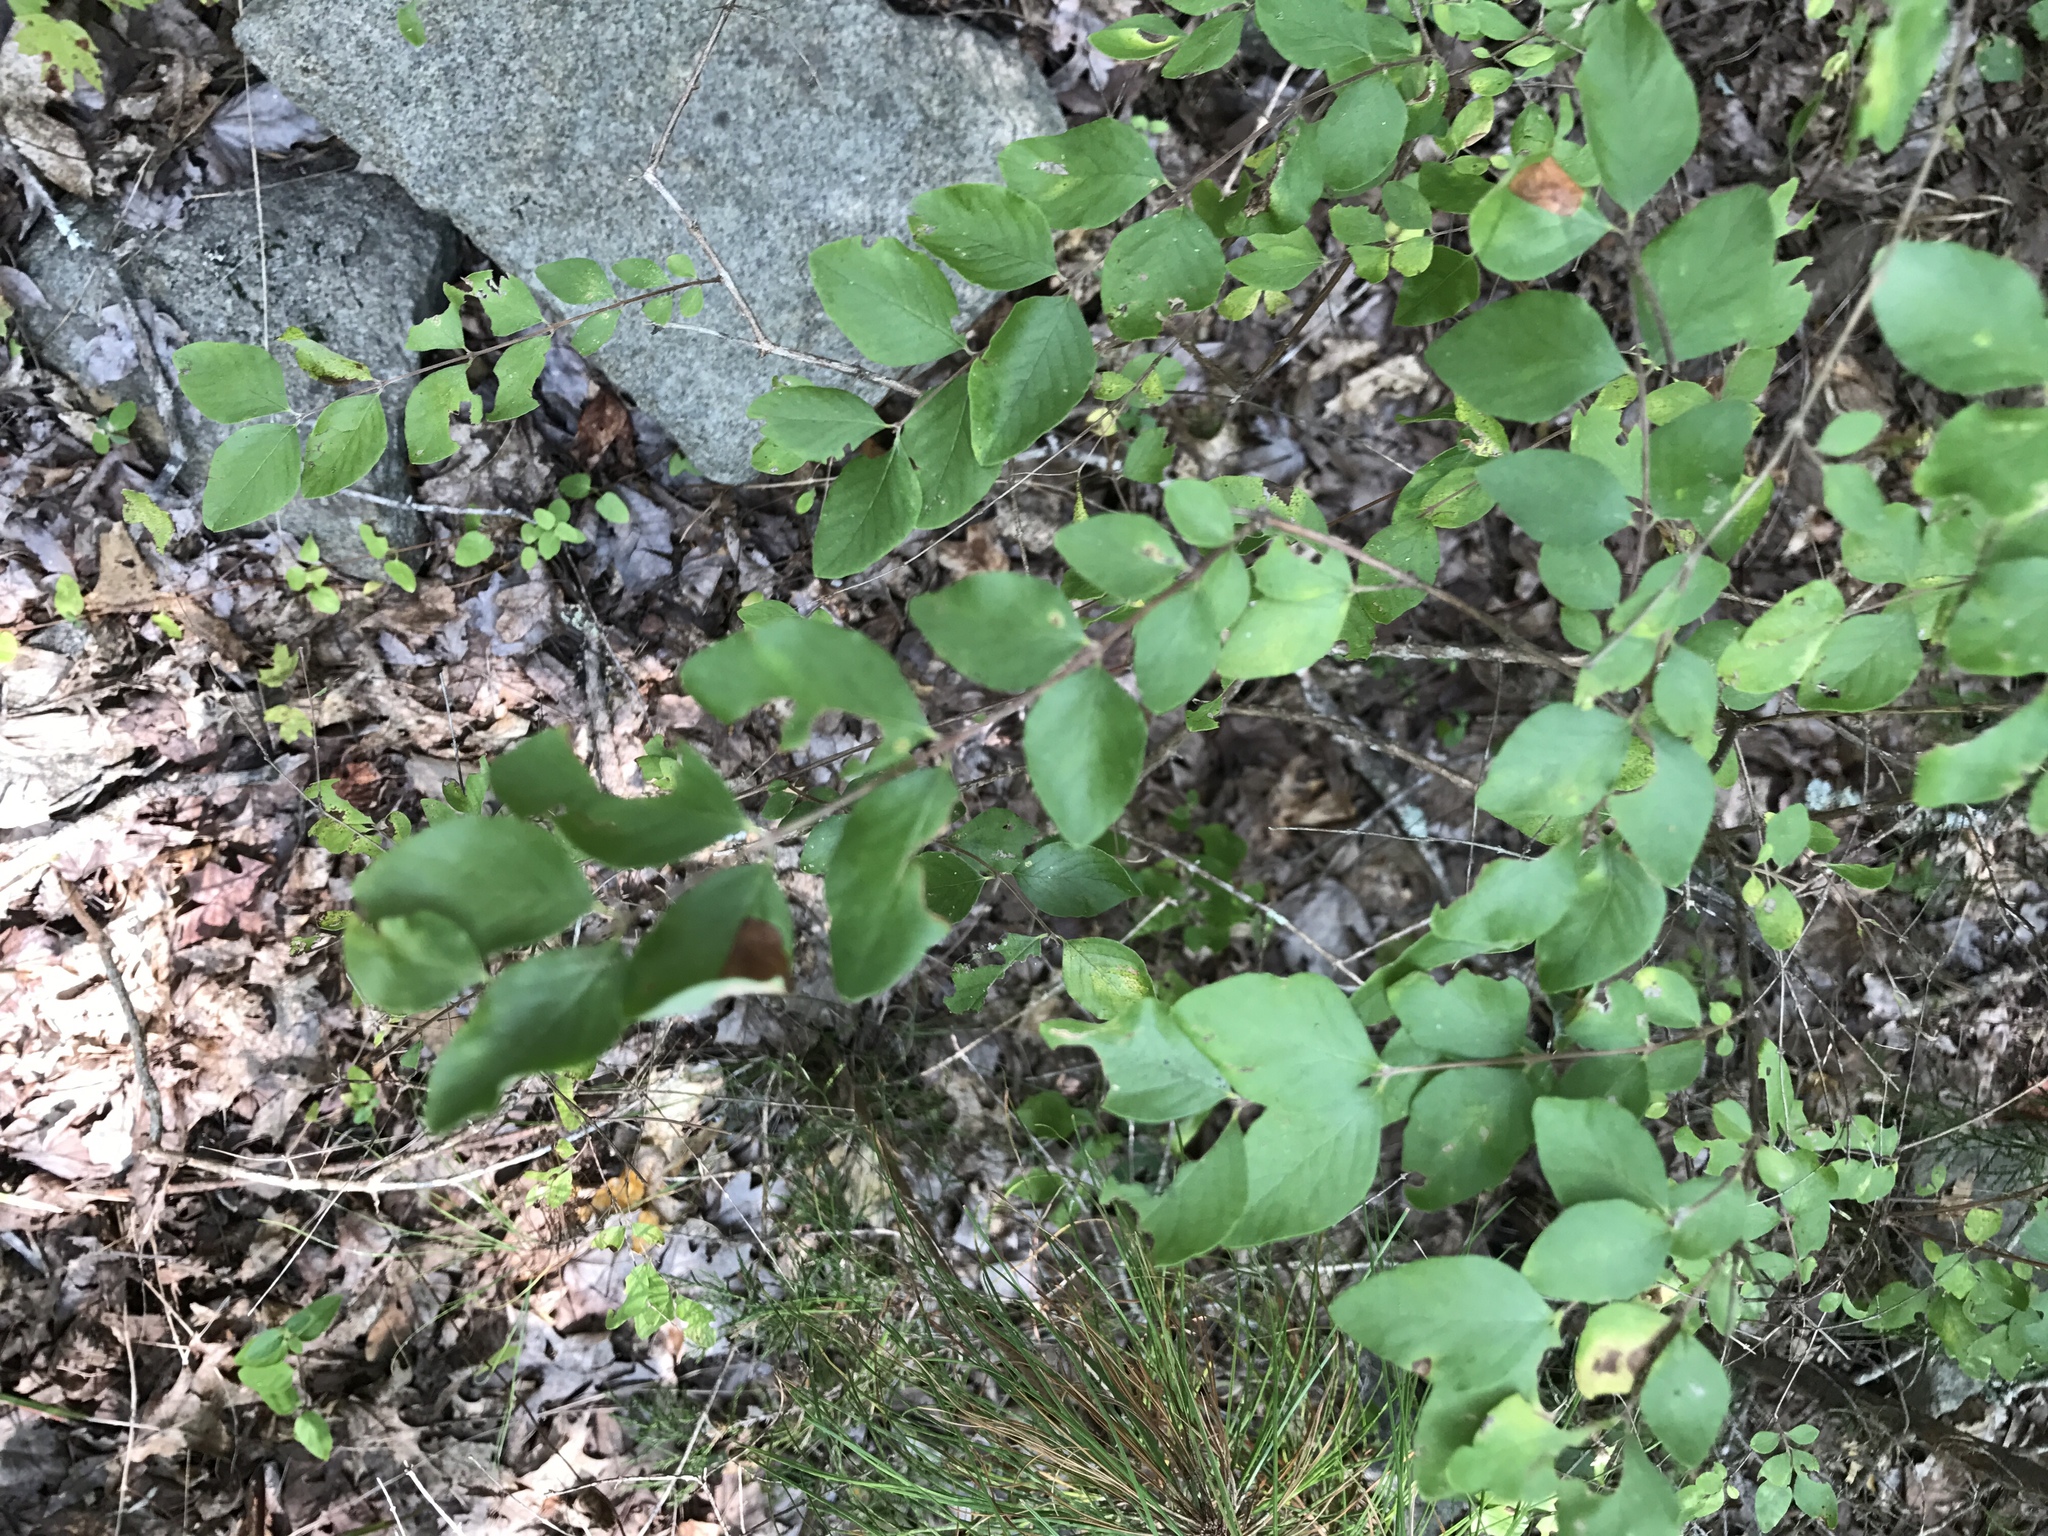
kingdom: Plantae
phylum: Tracheophyta
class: Magnoliopsida
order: Dipsacales
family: Caprifoliaceae
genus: Symphoricarpos
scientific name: Symphoricarpos orbiculatus
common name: Coralberry
